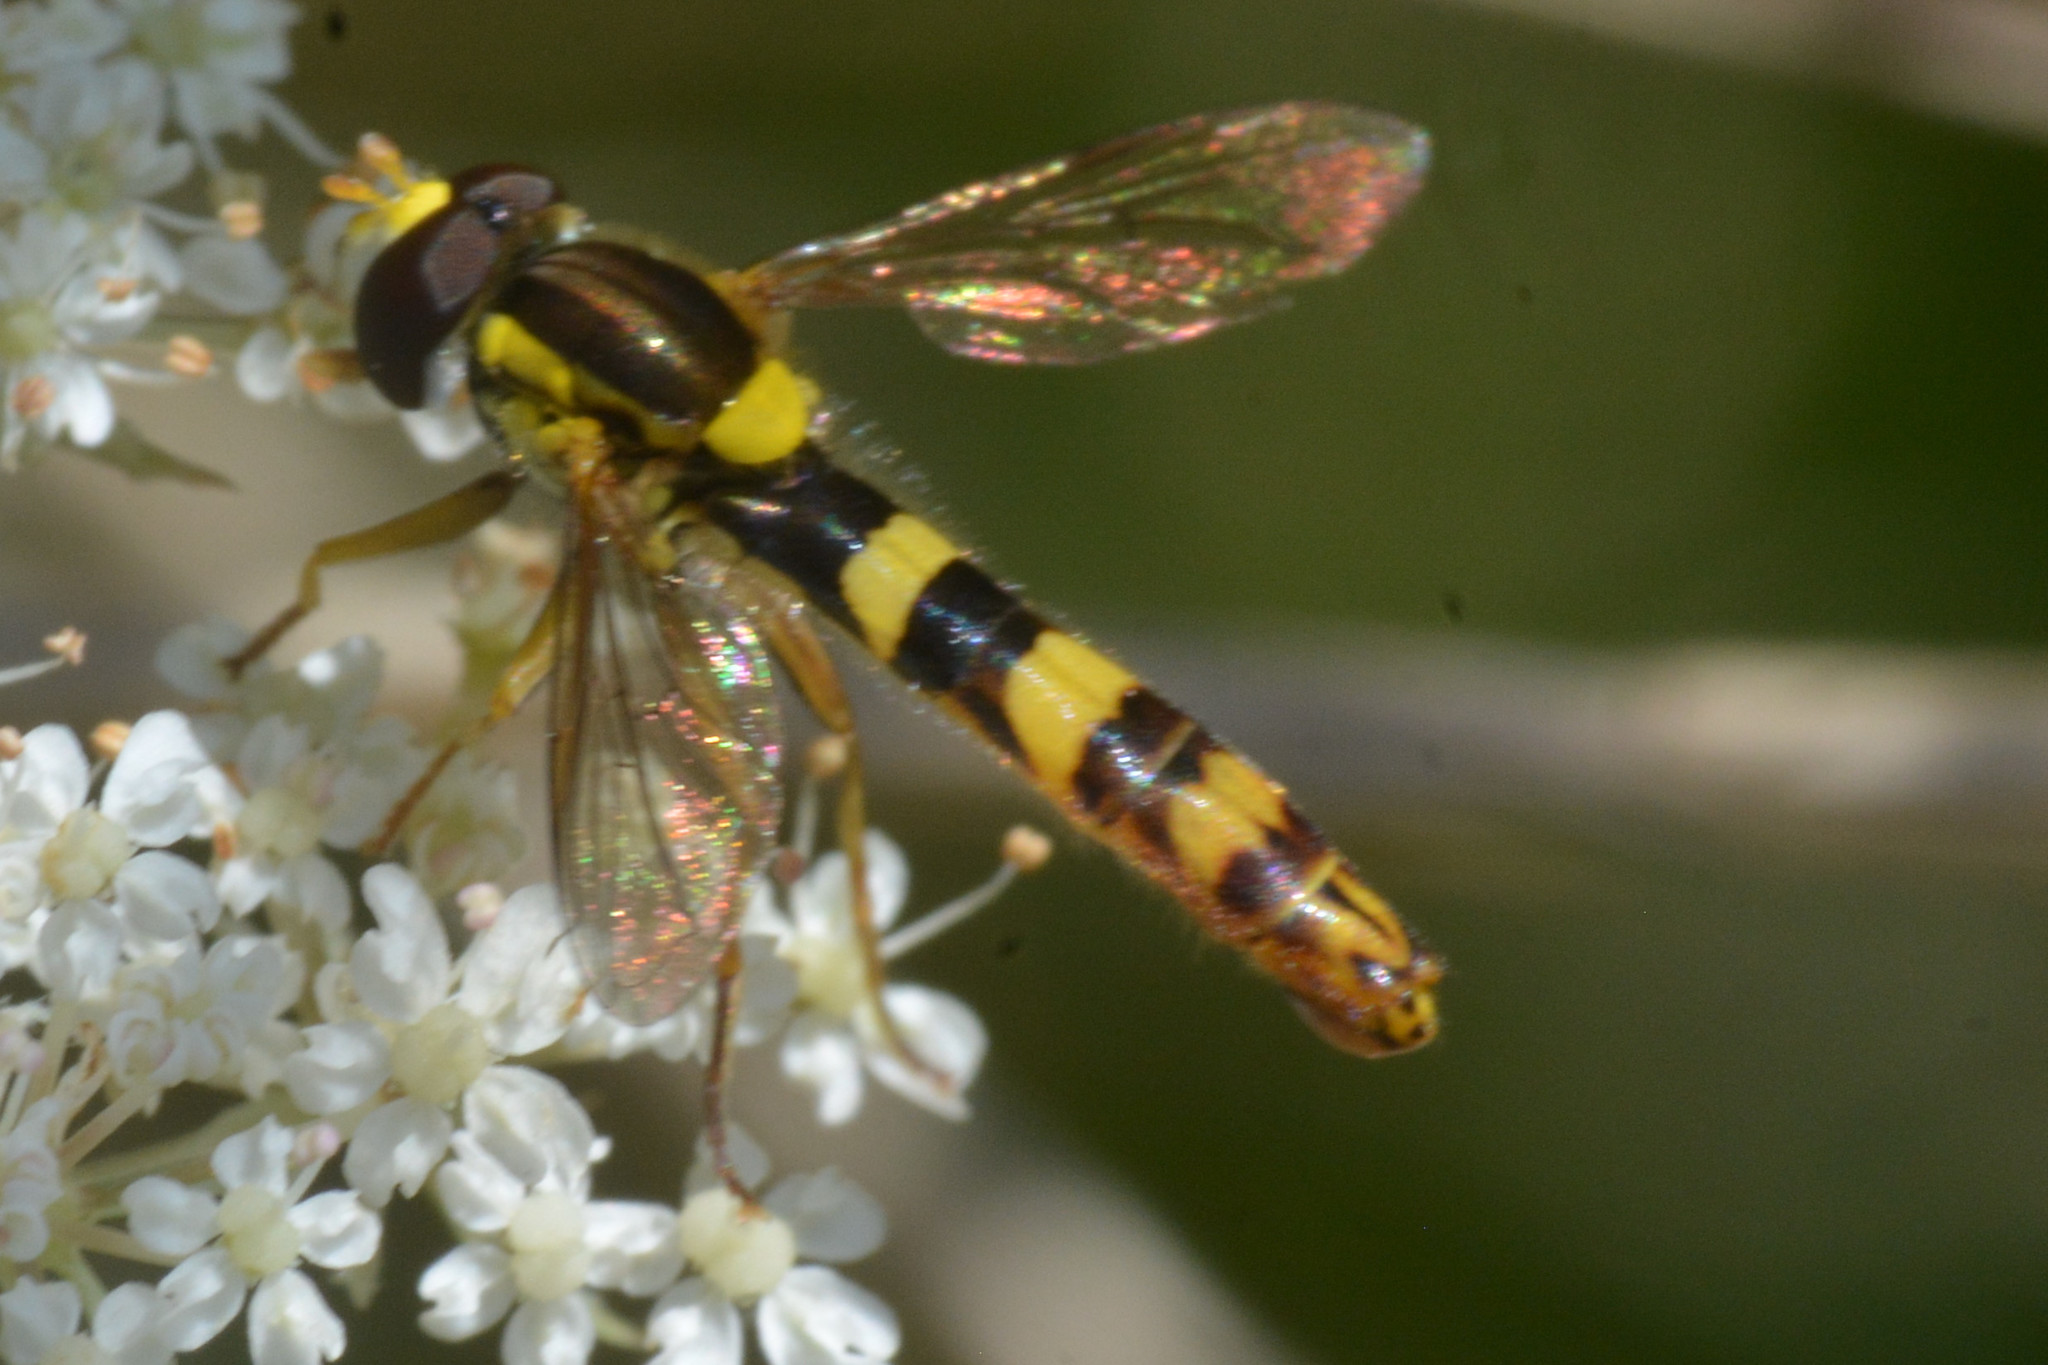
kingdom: Animalia
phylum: Arthropoda
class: Insecta
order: Diptera
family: Syrphidae
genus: Sphaerophoria
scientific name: Sphaerophoria scripta
